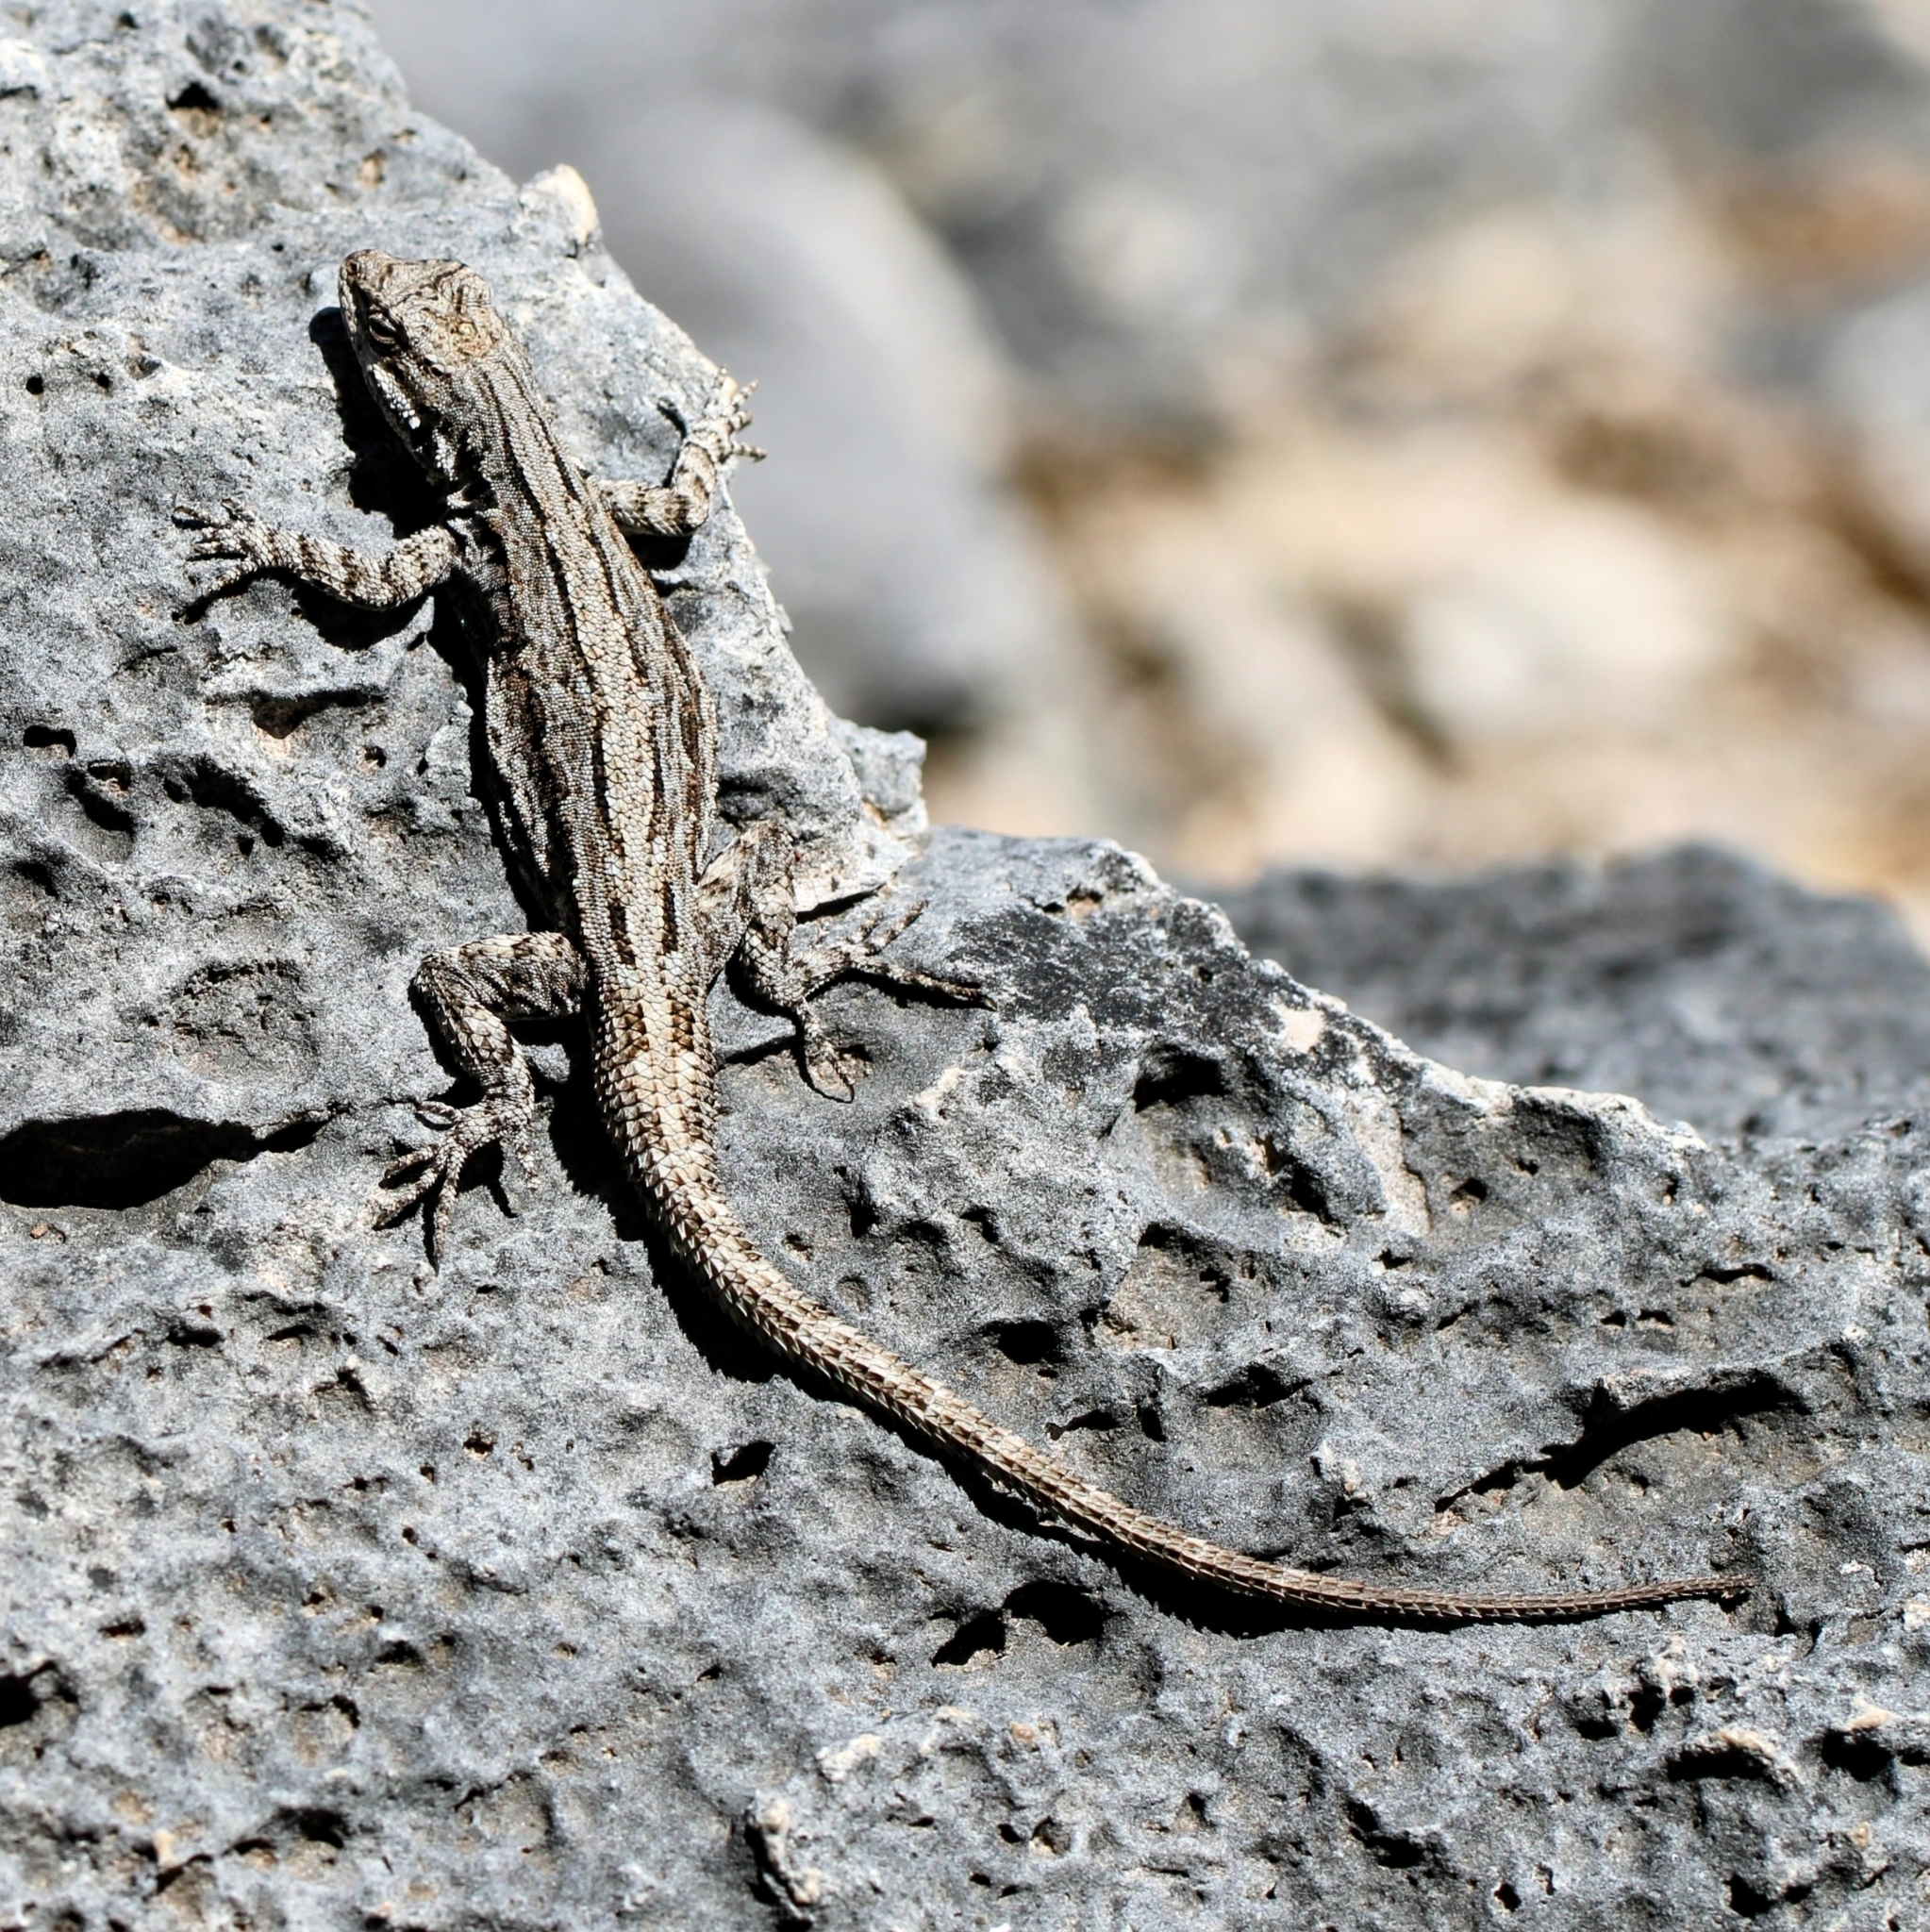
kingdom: Animalia
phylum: Chordata
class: Squamata
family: Phrynosomatidae
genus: Urosaurus
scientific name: Urosaurus ornatus
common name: Ornate tree lizard
